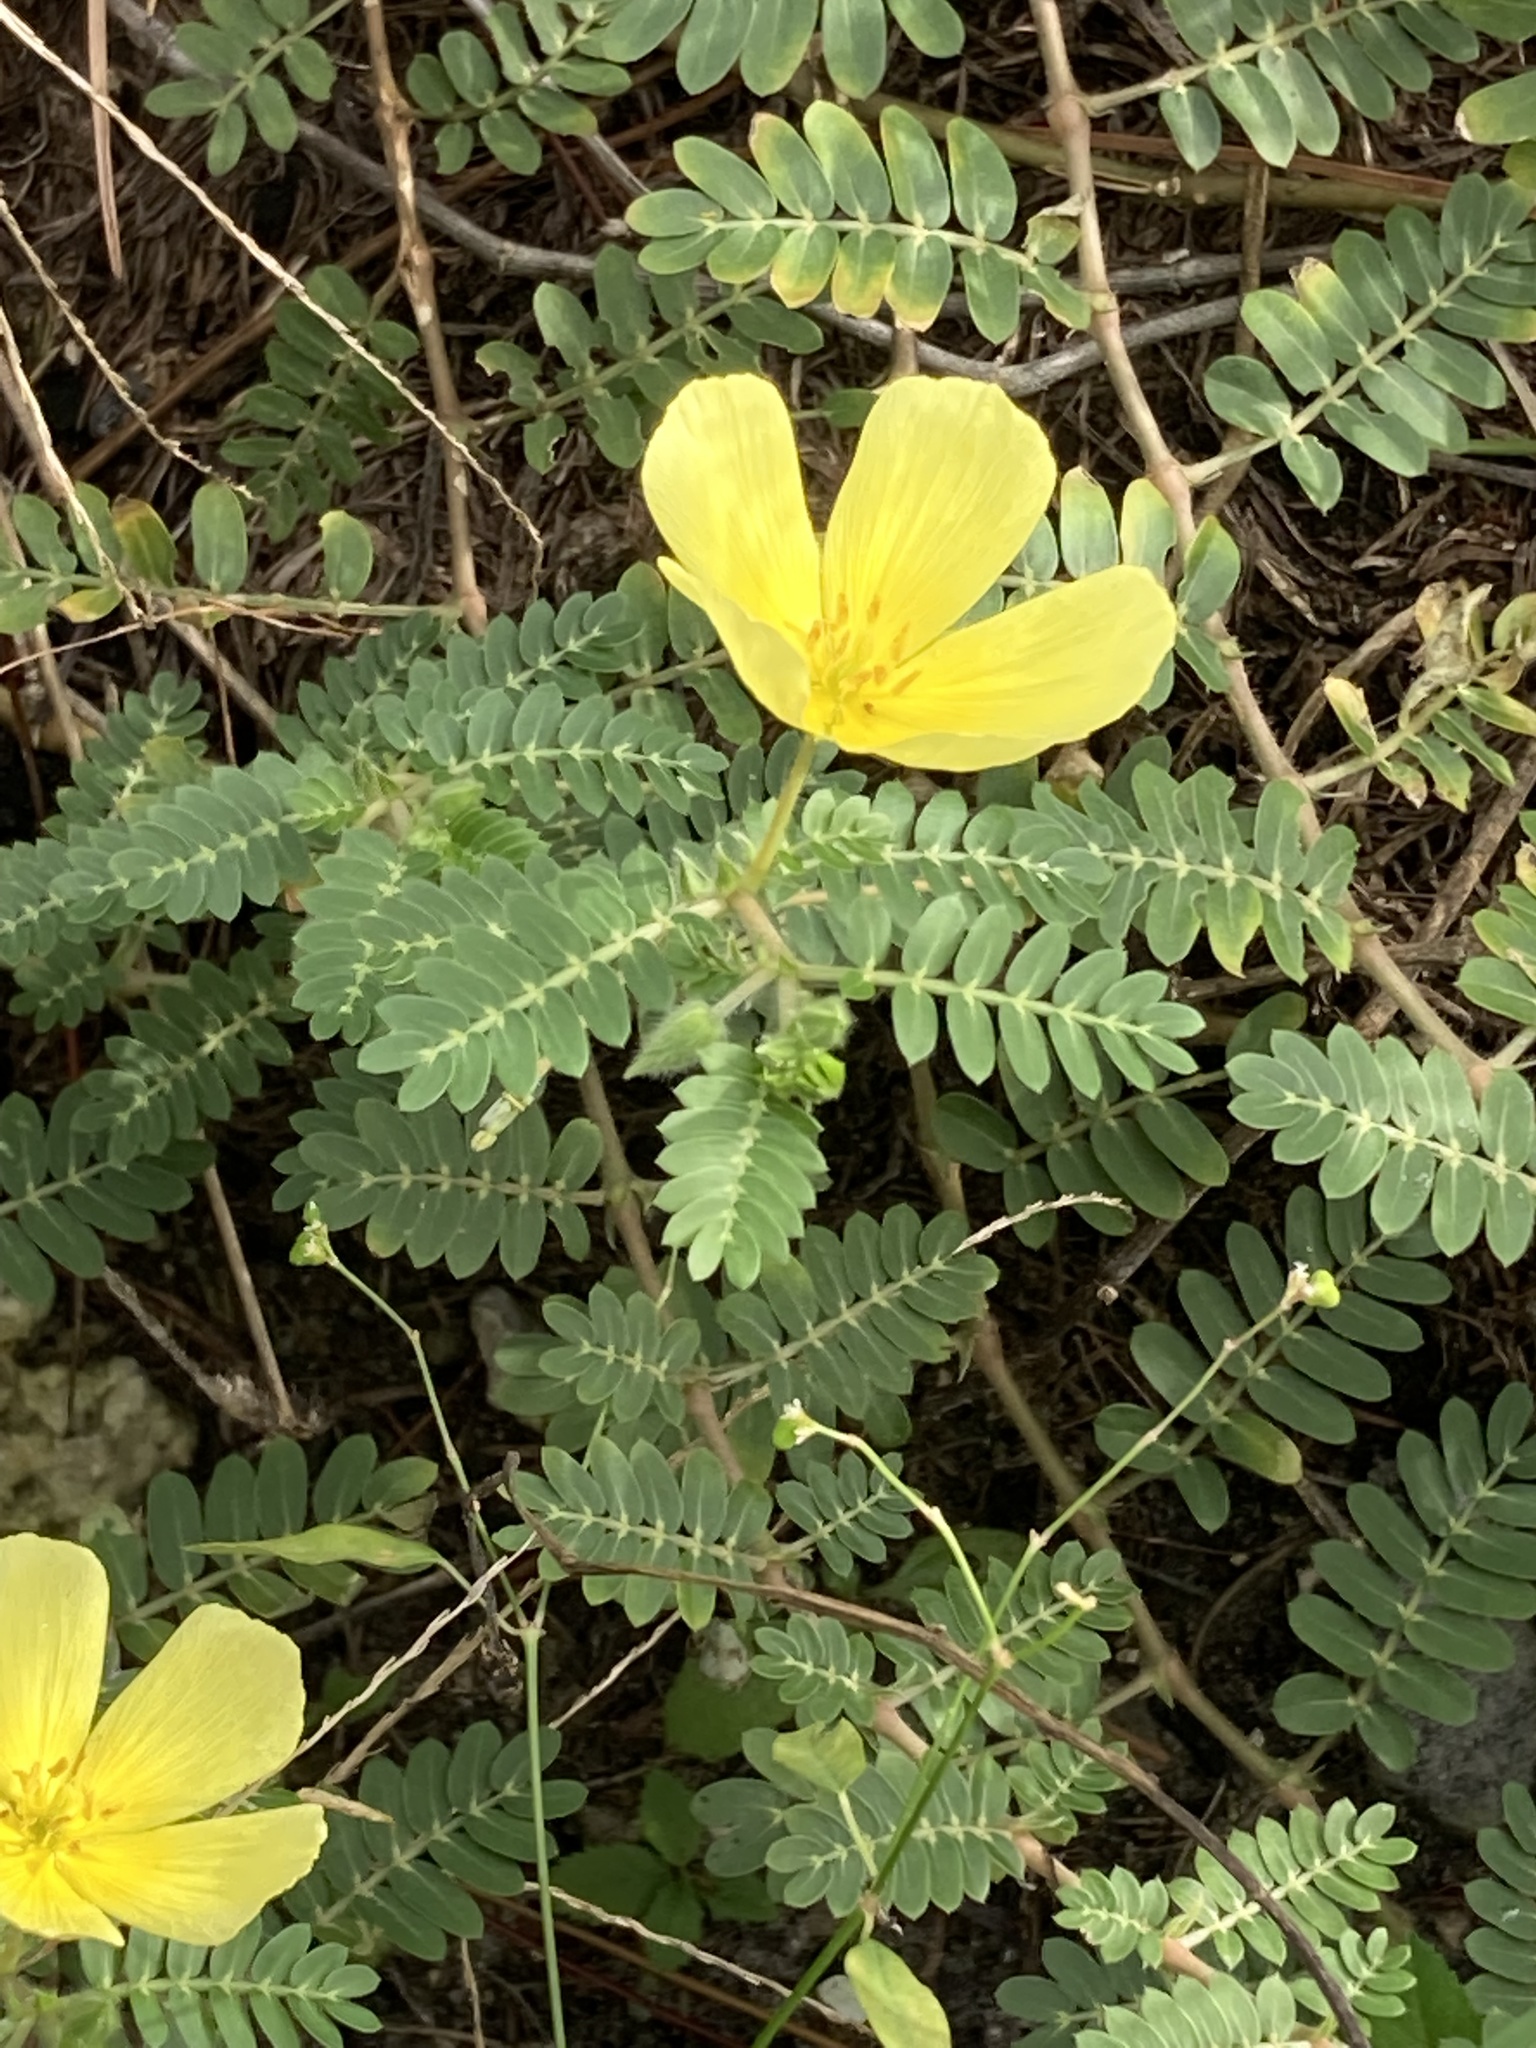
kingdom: Plantae
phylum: Tracheophyta
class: Magnoliopsida
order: Zygophyllales
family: Zygophyllaceae
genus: Tribulus
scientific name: Tribulus cistoides
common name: Jamaican feverplant
